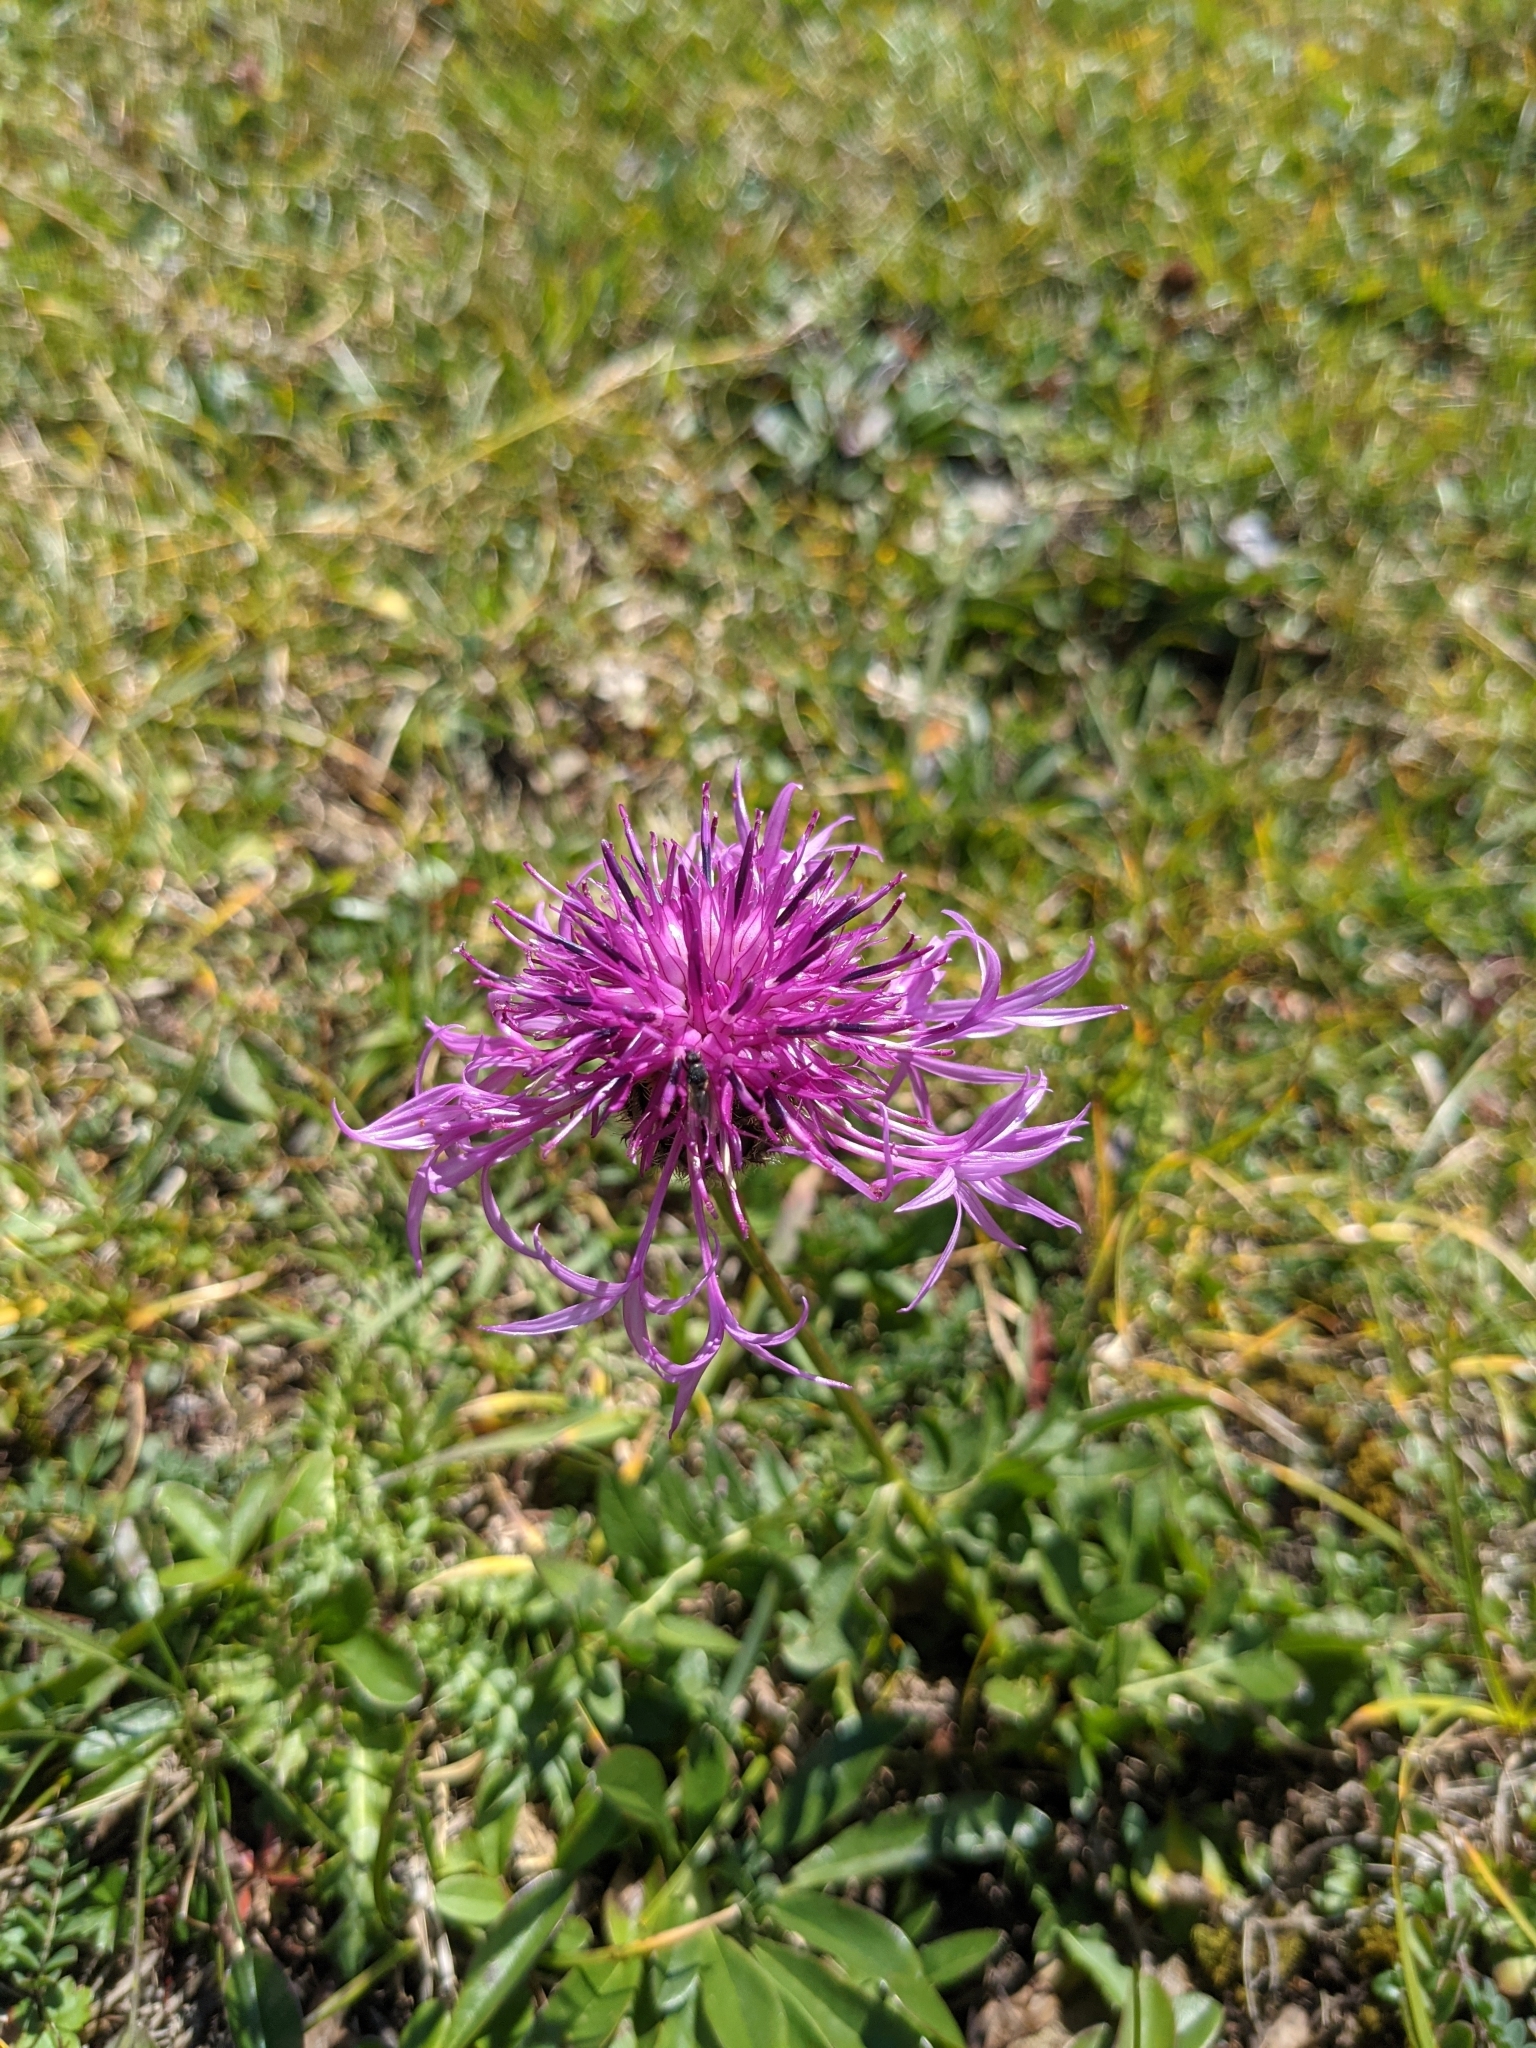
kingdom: Plantae
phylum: Tracheophyta
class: Magnoliopsida
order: Asterales
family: Asteraceae
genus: Centaurea
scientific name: Centaurea scabiosa
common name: Greater knapweed
